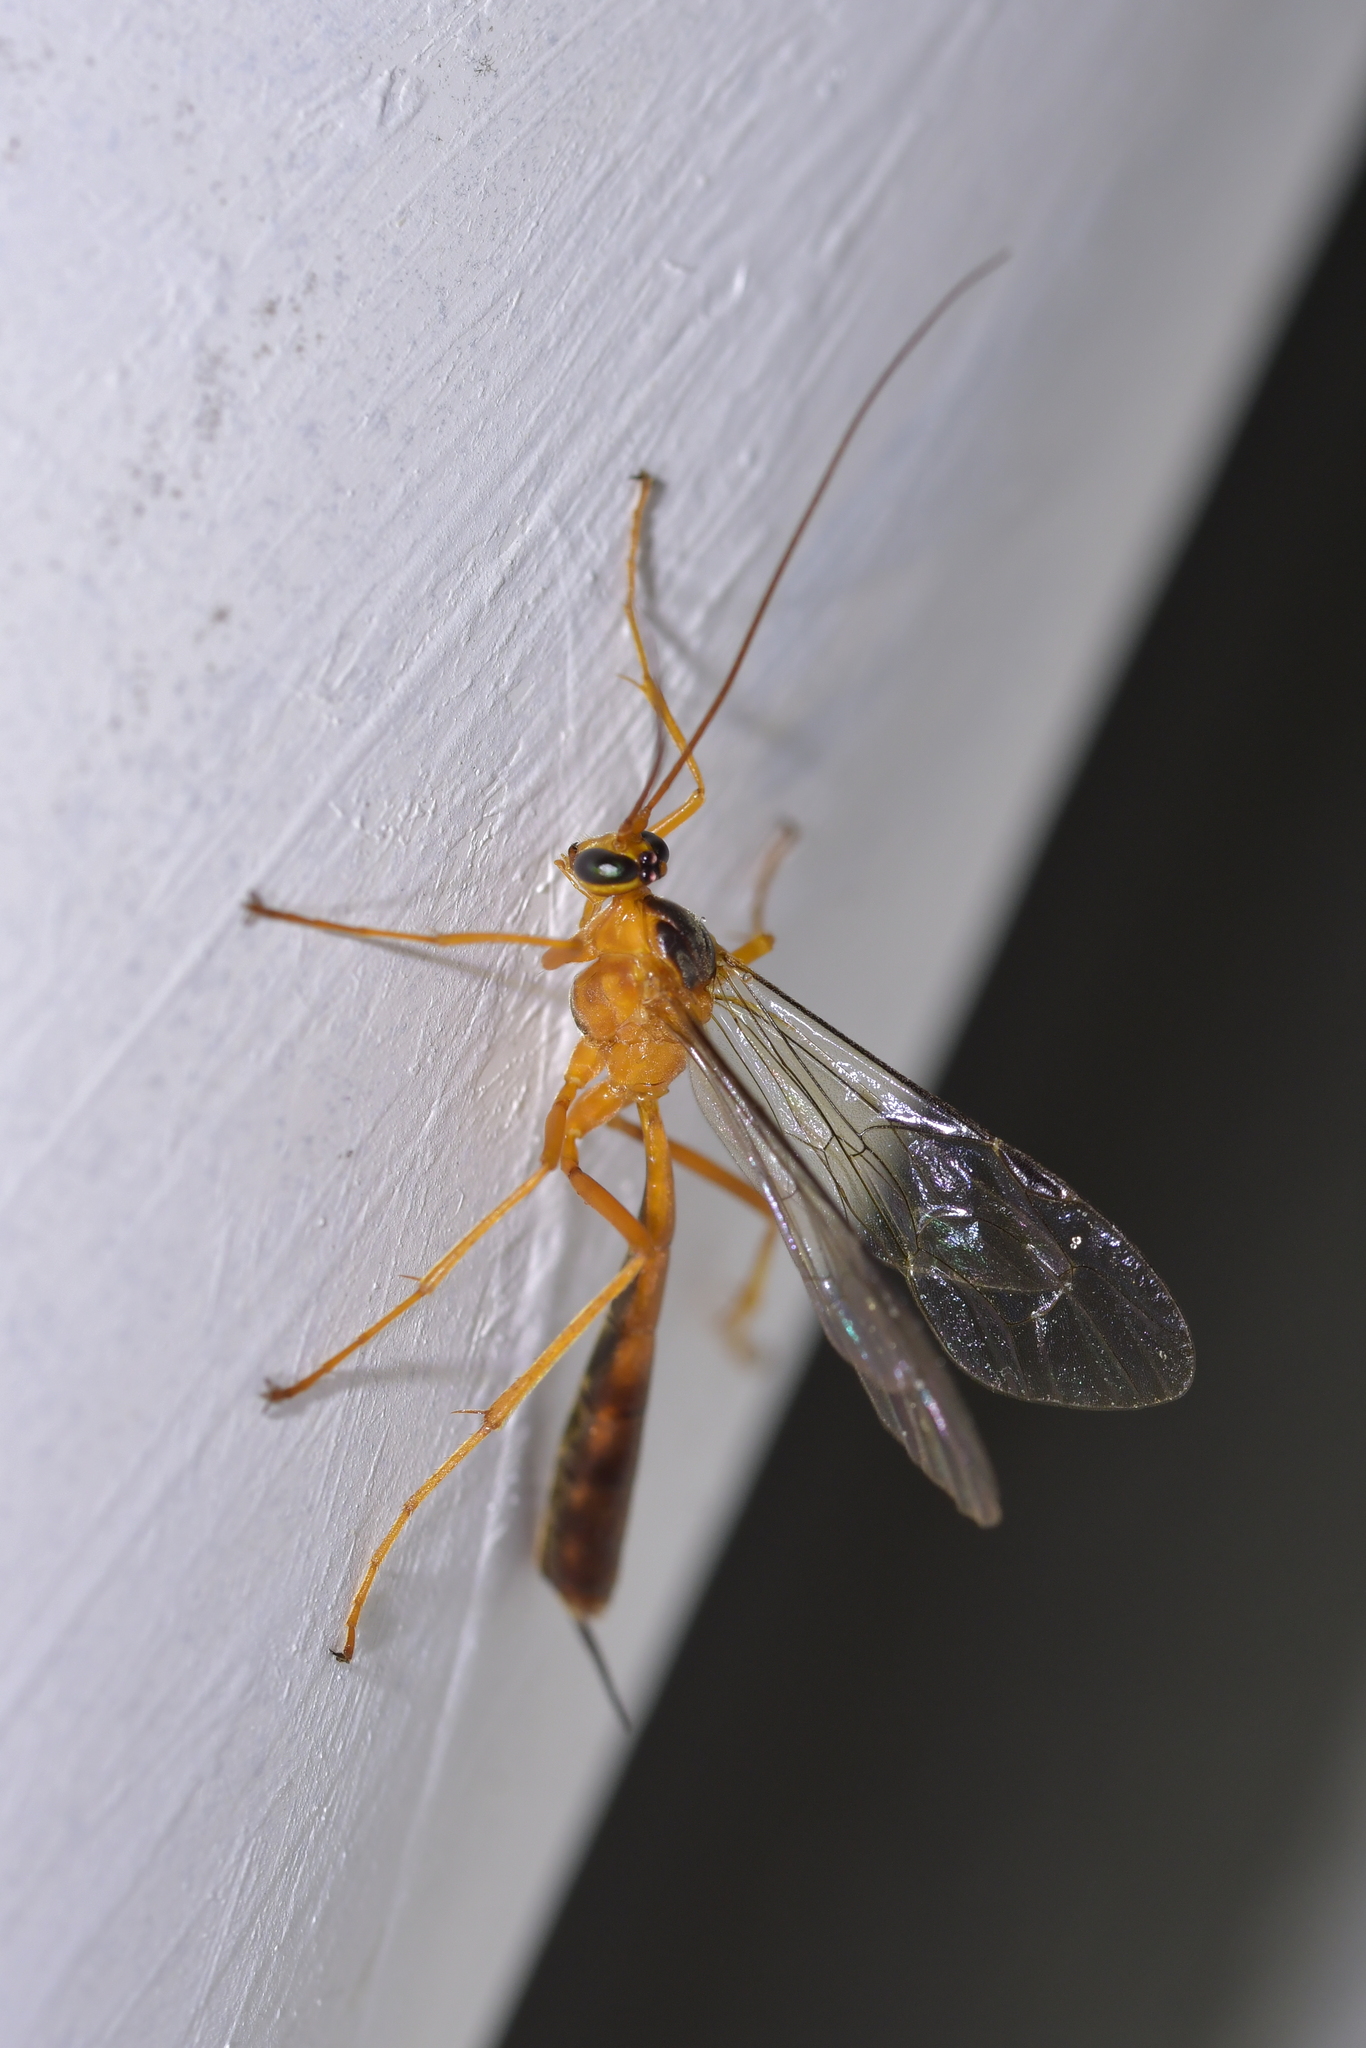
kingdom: Animalia
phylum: Arthropoda
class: Insecta
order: Hymenoptera
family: Ichneumonidae
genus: Netelia
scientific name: Netelia ephippiata
